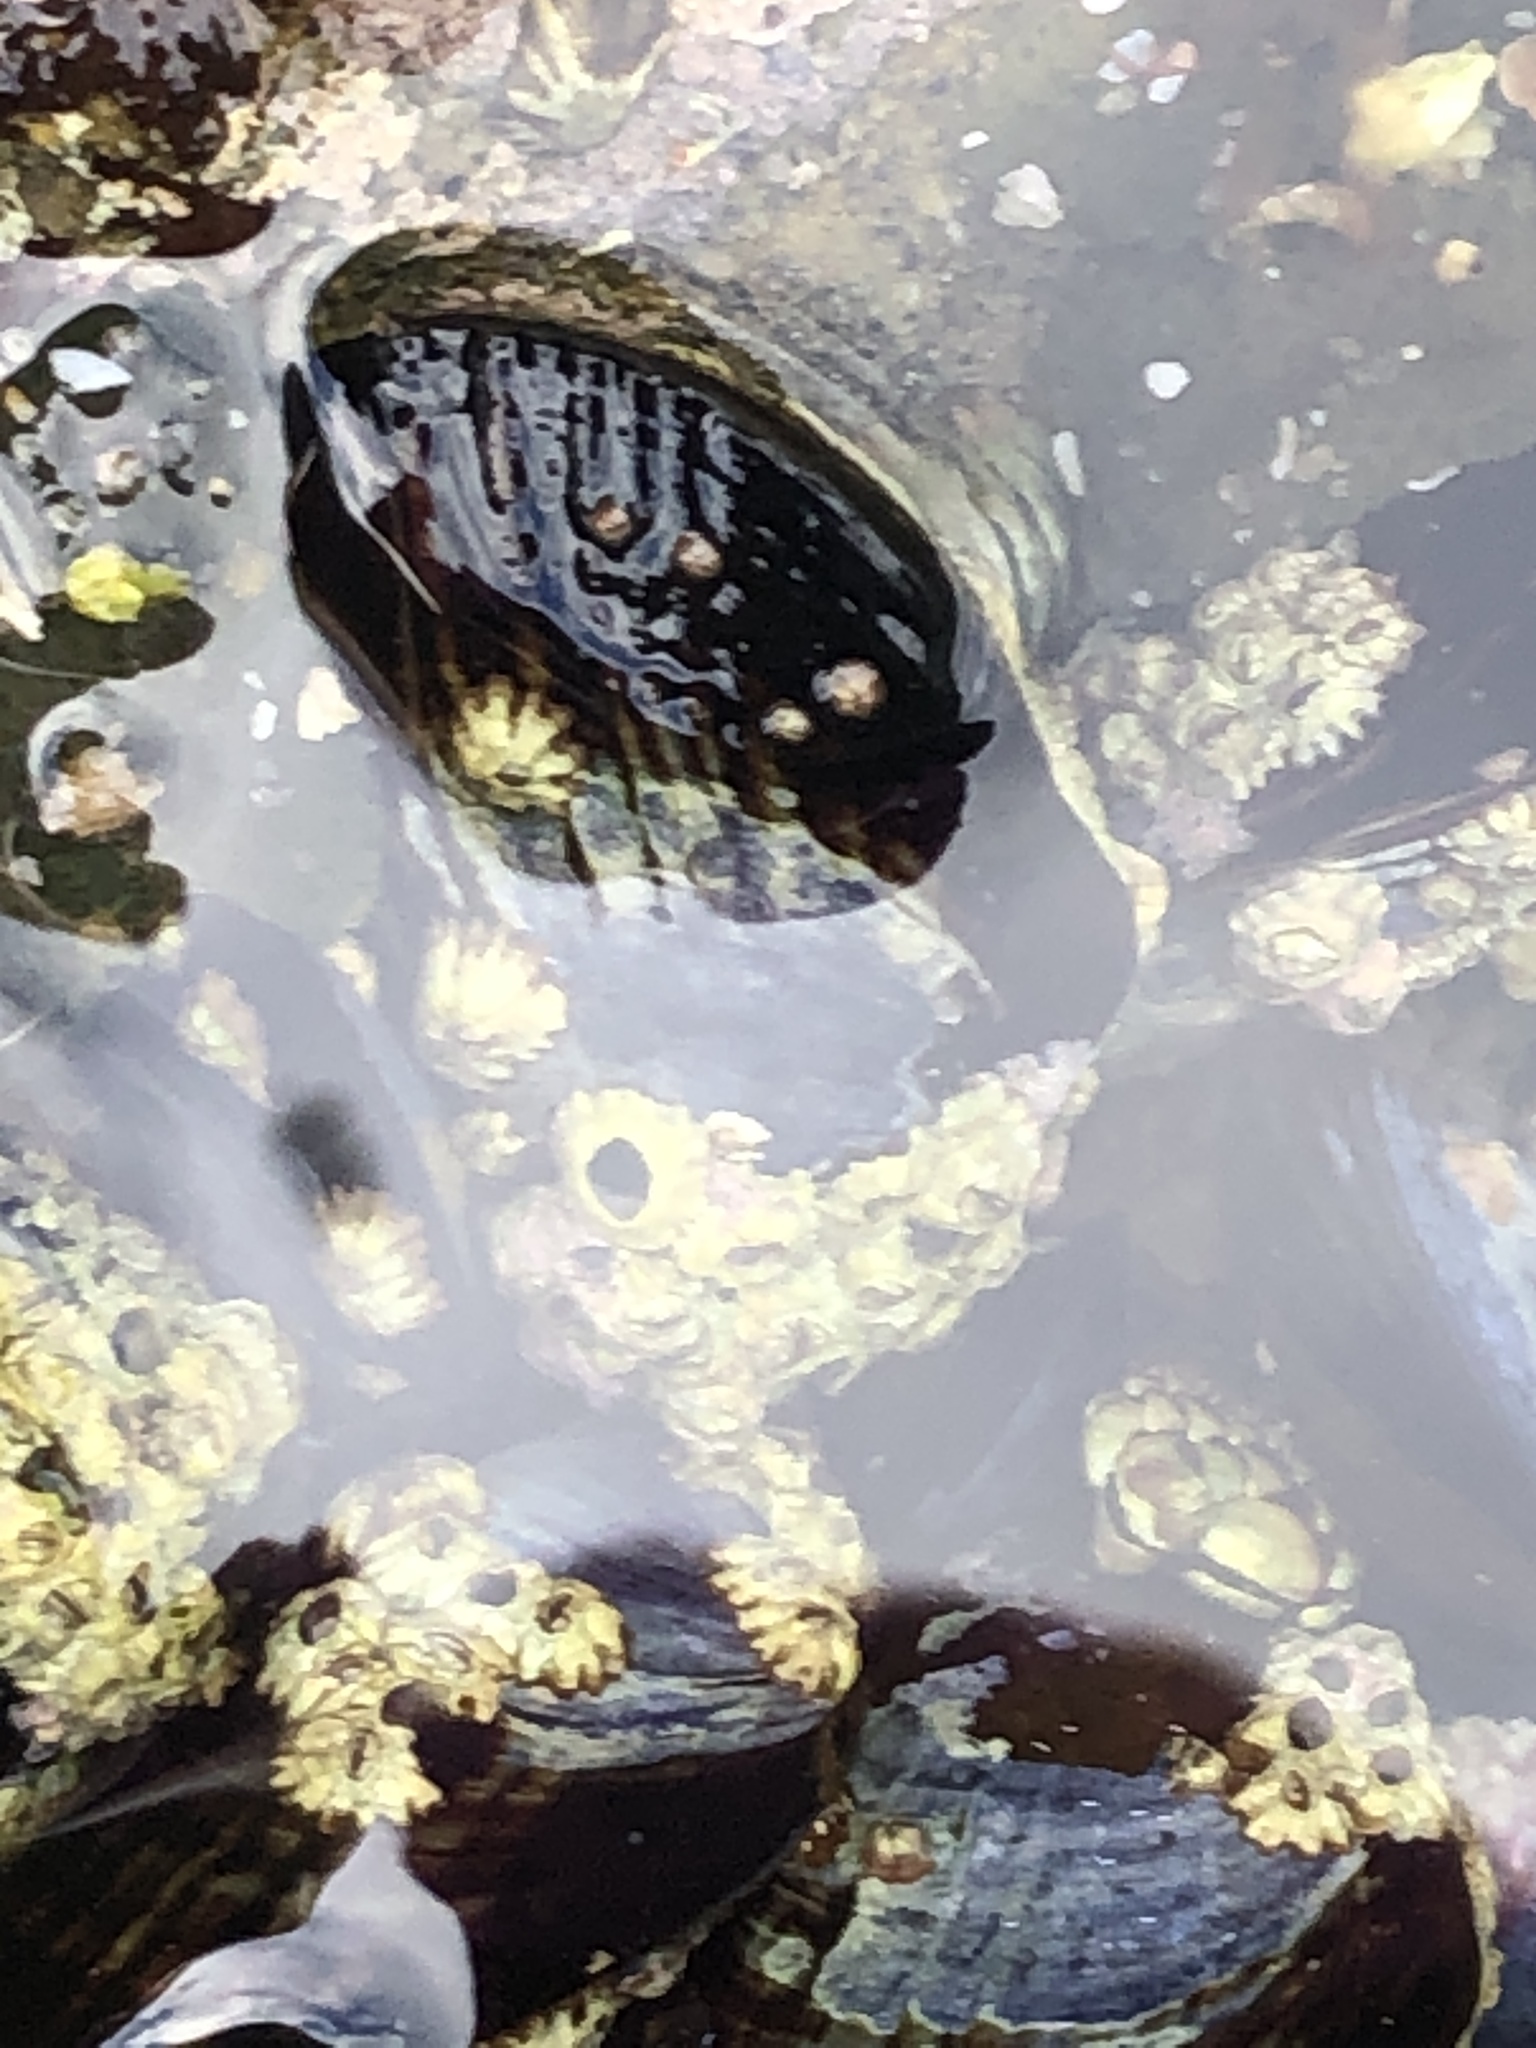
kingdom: Animalia
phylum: Mollusca
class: Bivalvia
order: Mytilida
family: Mytilidae
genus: Mytilus
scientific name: Mytilus californianus
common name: California mussel
